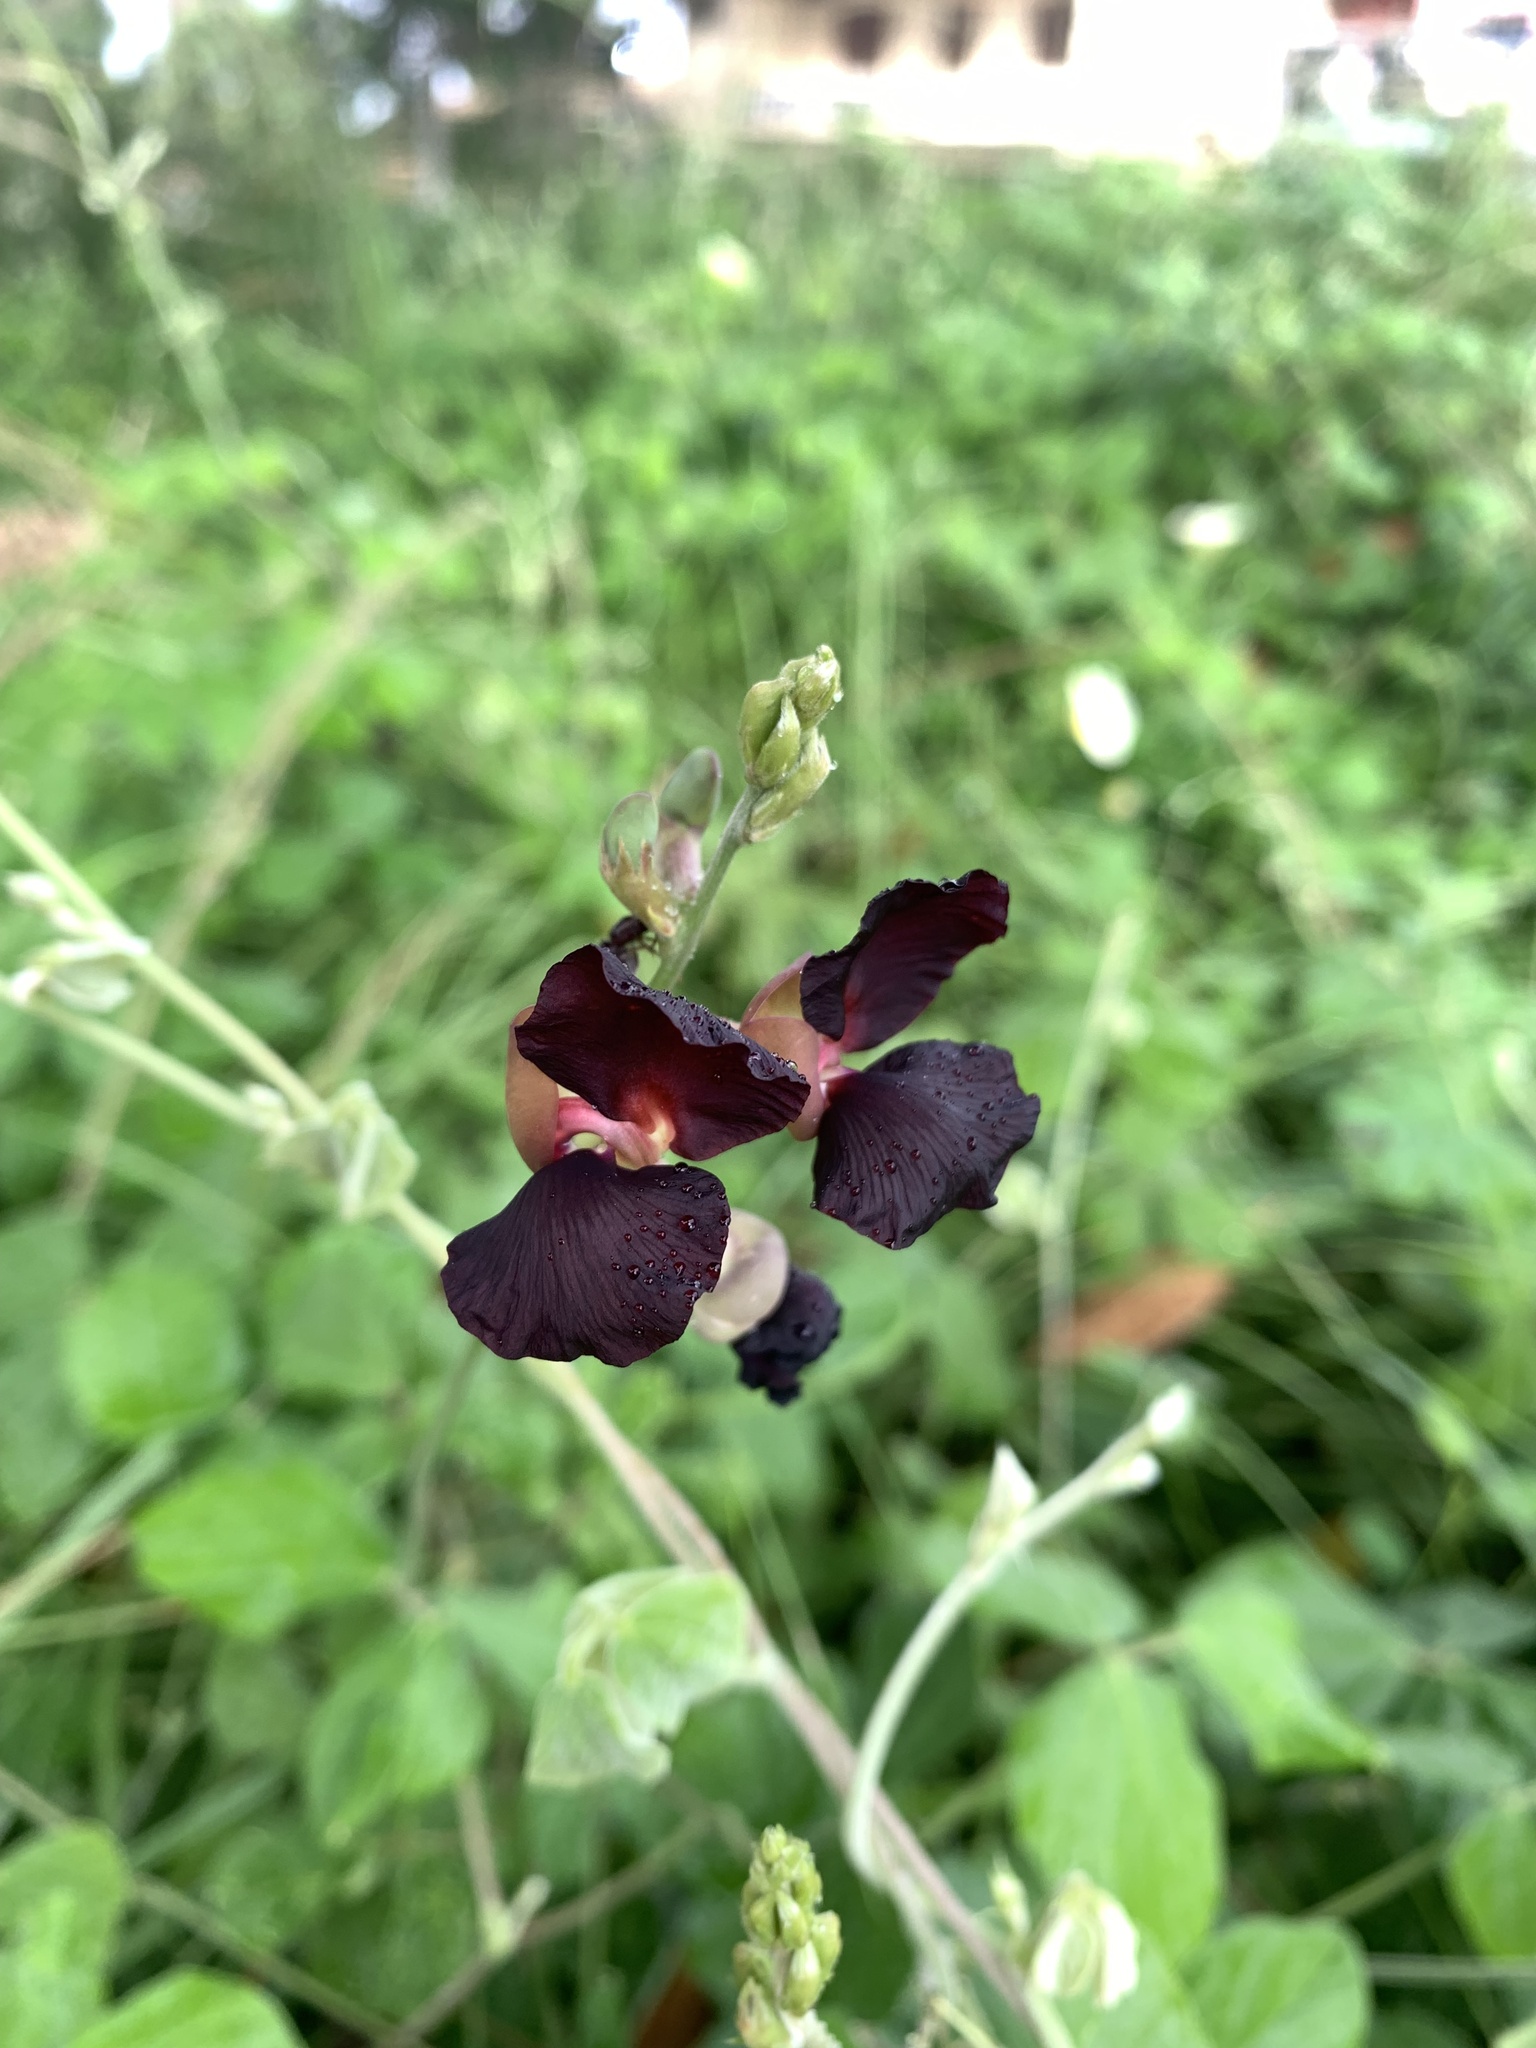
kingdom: Plantae
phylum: Tracheophyta
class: Magnoliopsida
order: Fabales
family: Fabaceae
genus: Macroptilium
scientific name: Macroptilium atropurpureum
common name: Purple bushbean
